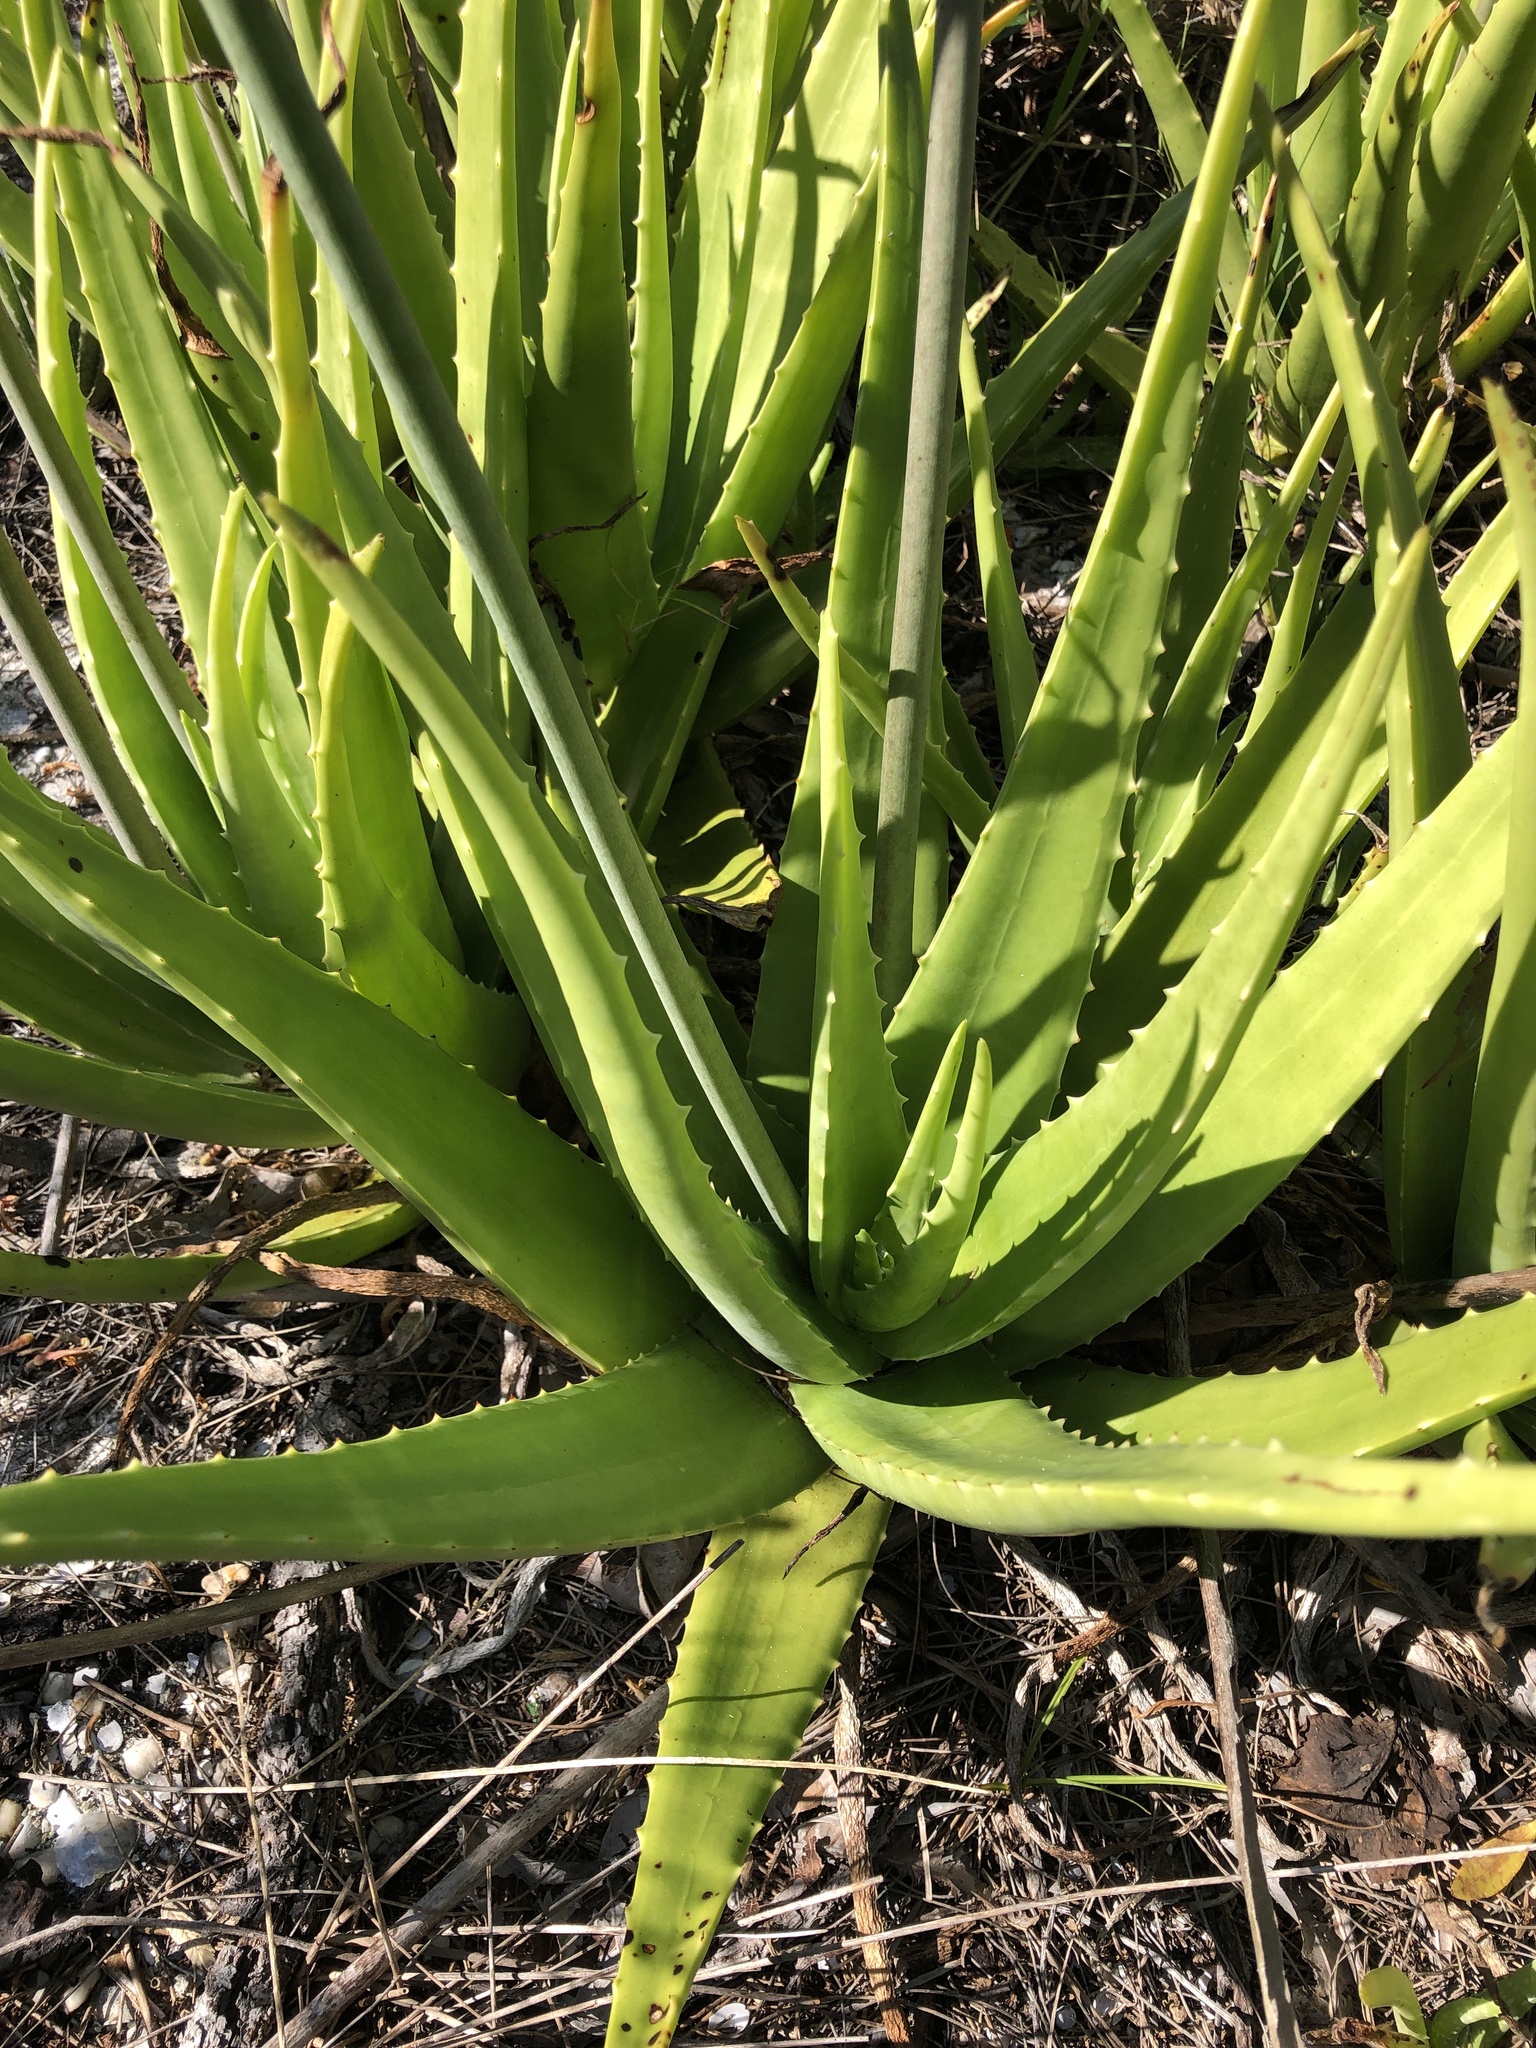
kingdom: Plantae
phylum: Tracheophyta
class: Liliopsida
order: Asparagales
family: Asphodelaceae
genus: Aloe
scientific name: Aloe vera
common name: Barbados aloe
